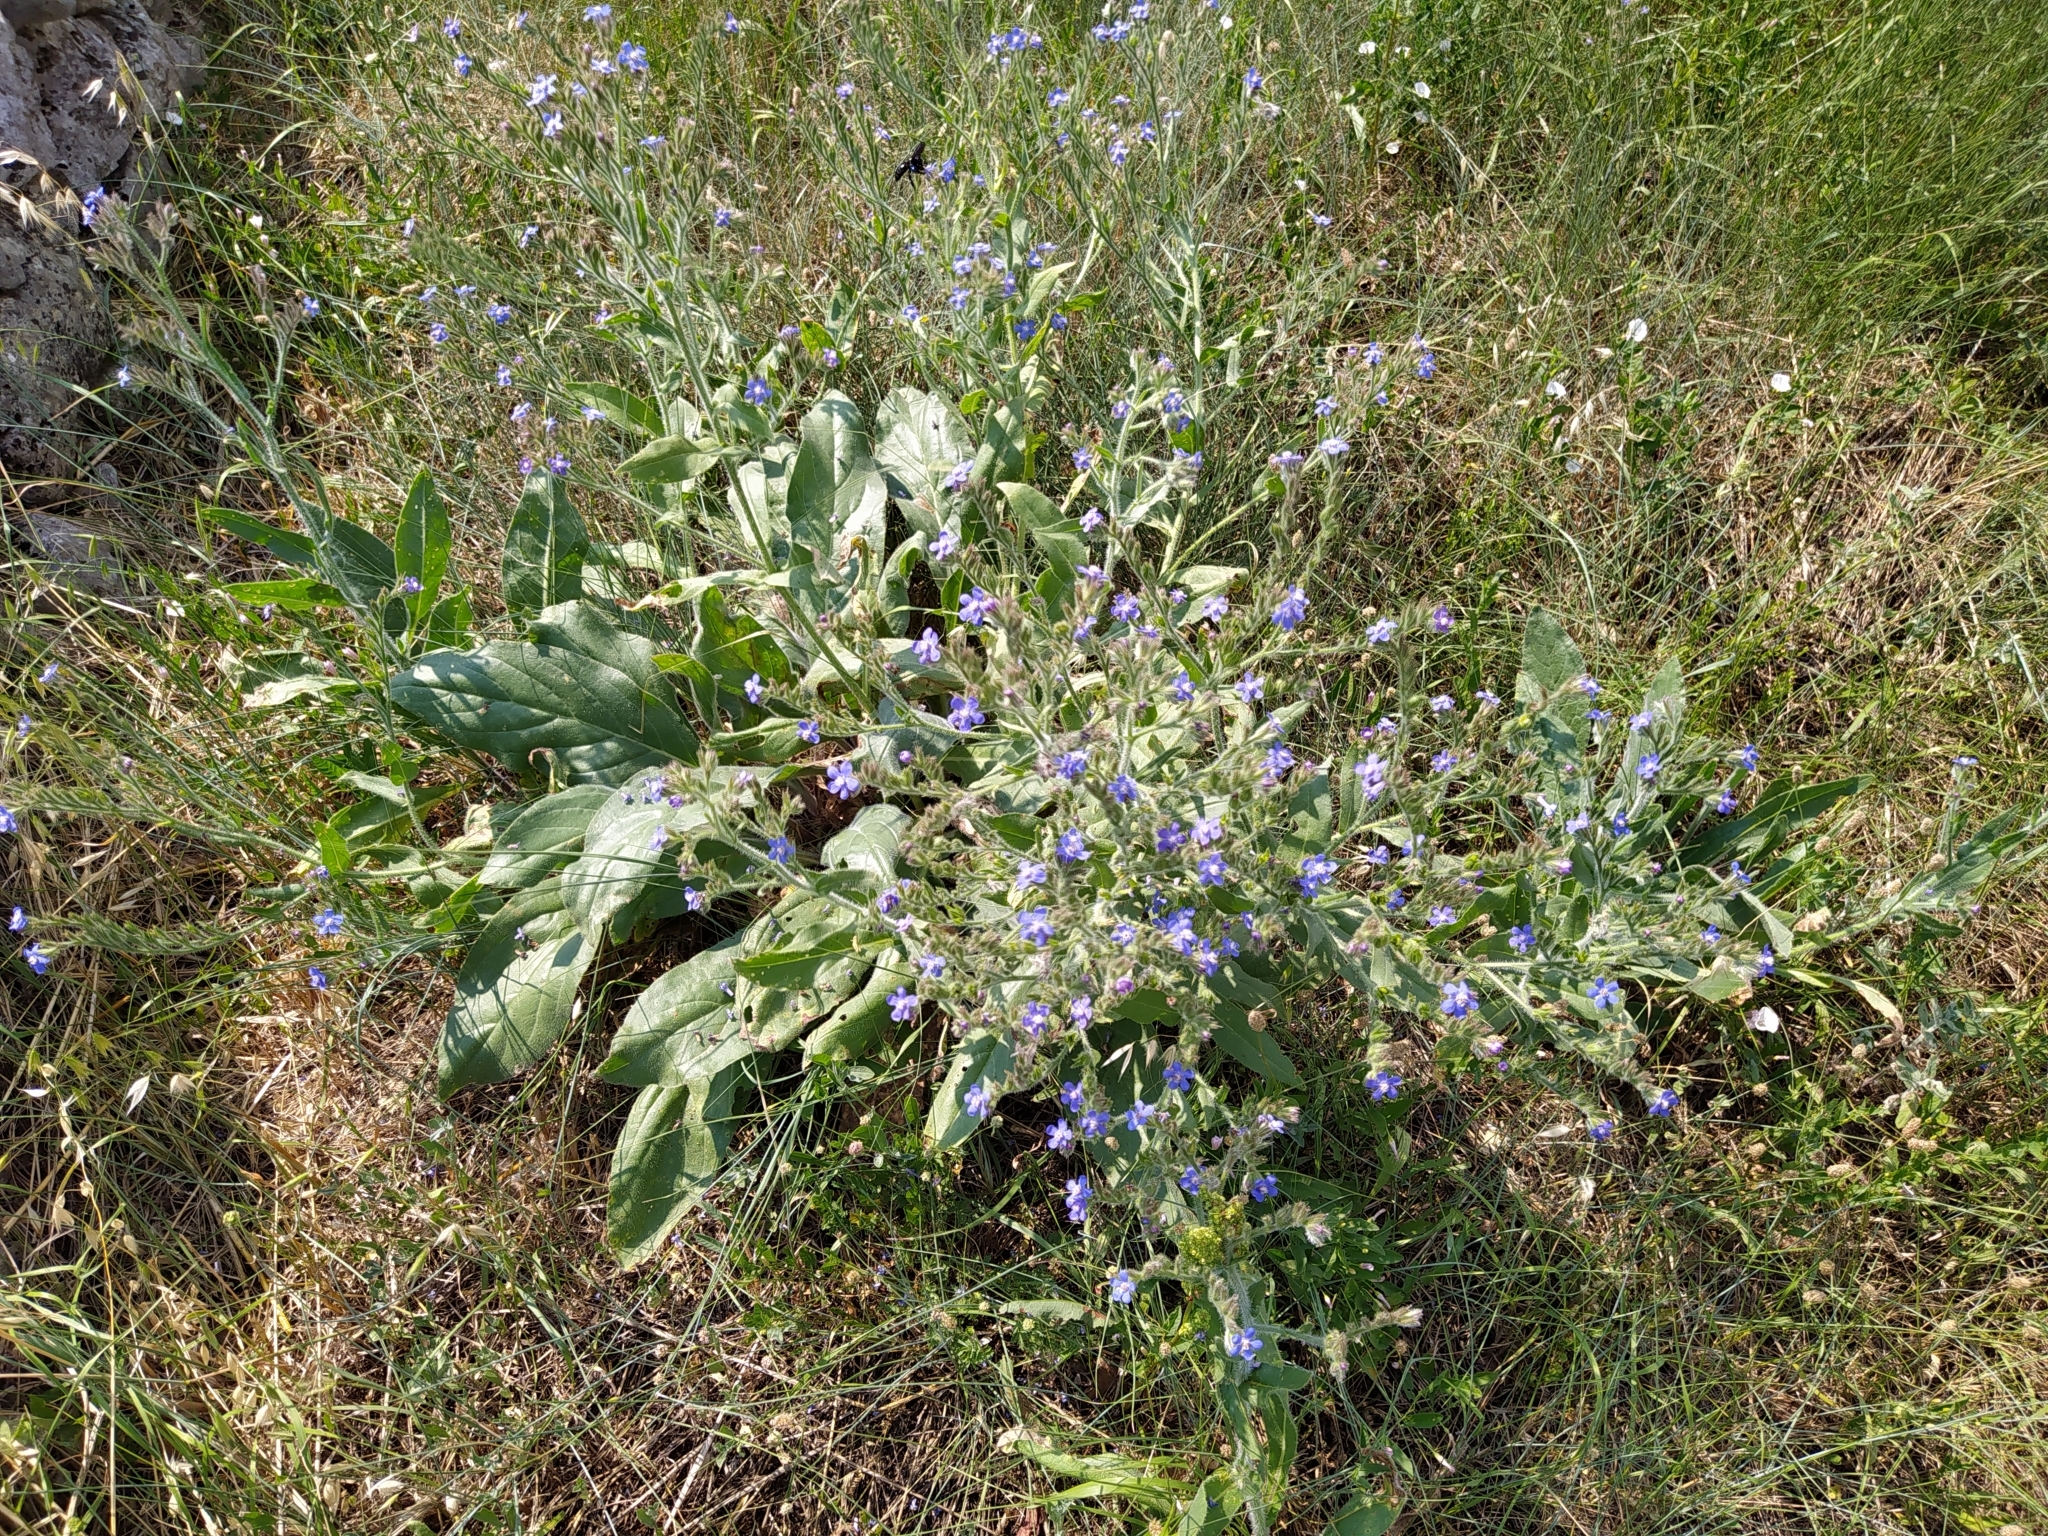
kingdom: Plantae
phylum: Tracheophyta
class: Magnoliopsida
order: Boraginales
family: Boraginaceae
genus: Anchusa
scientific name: Anchusa azurea
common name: Garden anchusa
